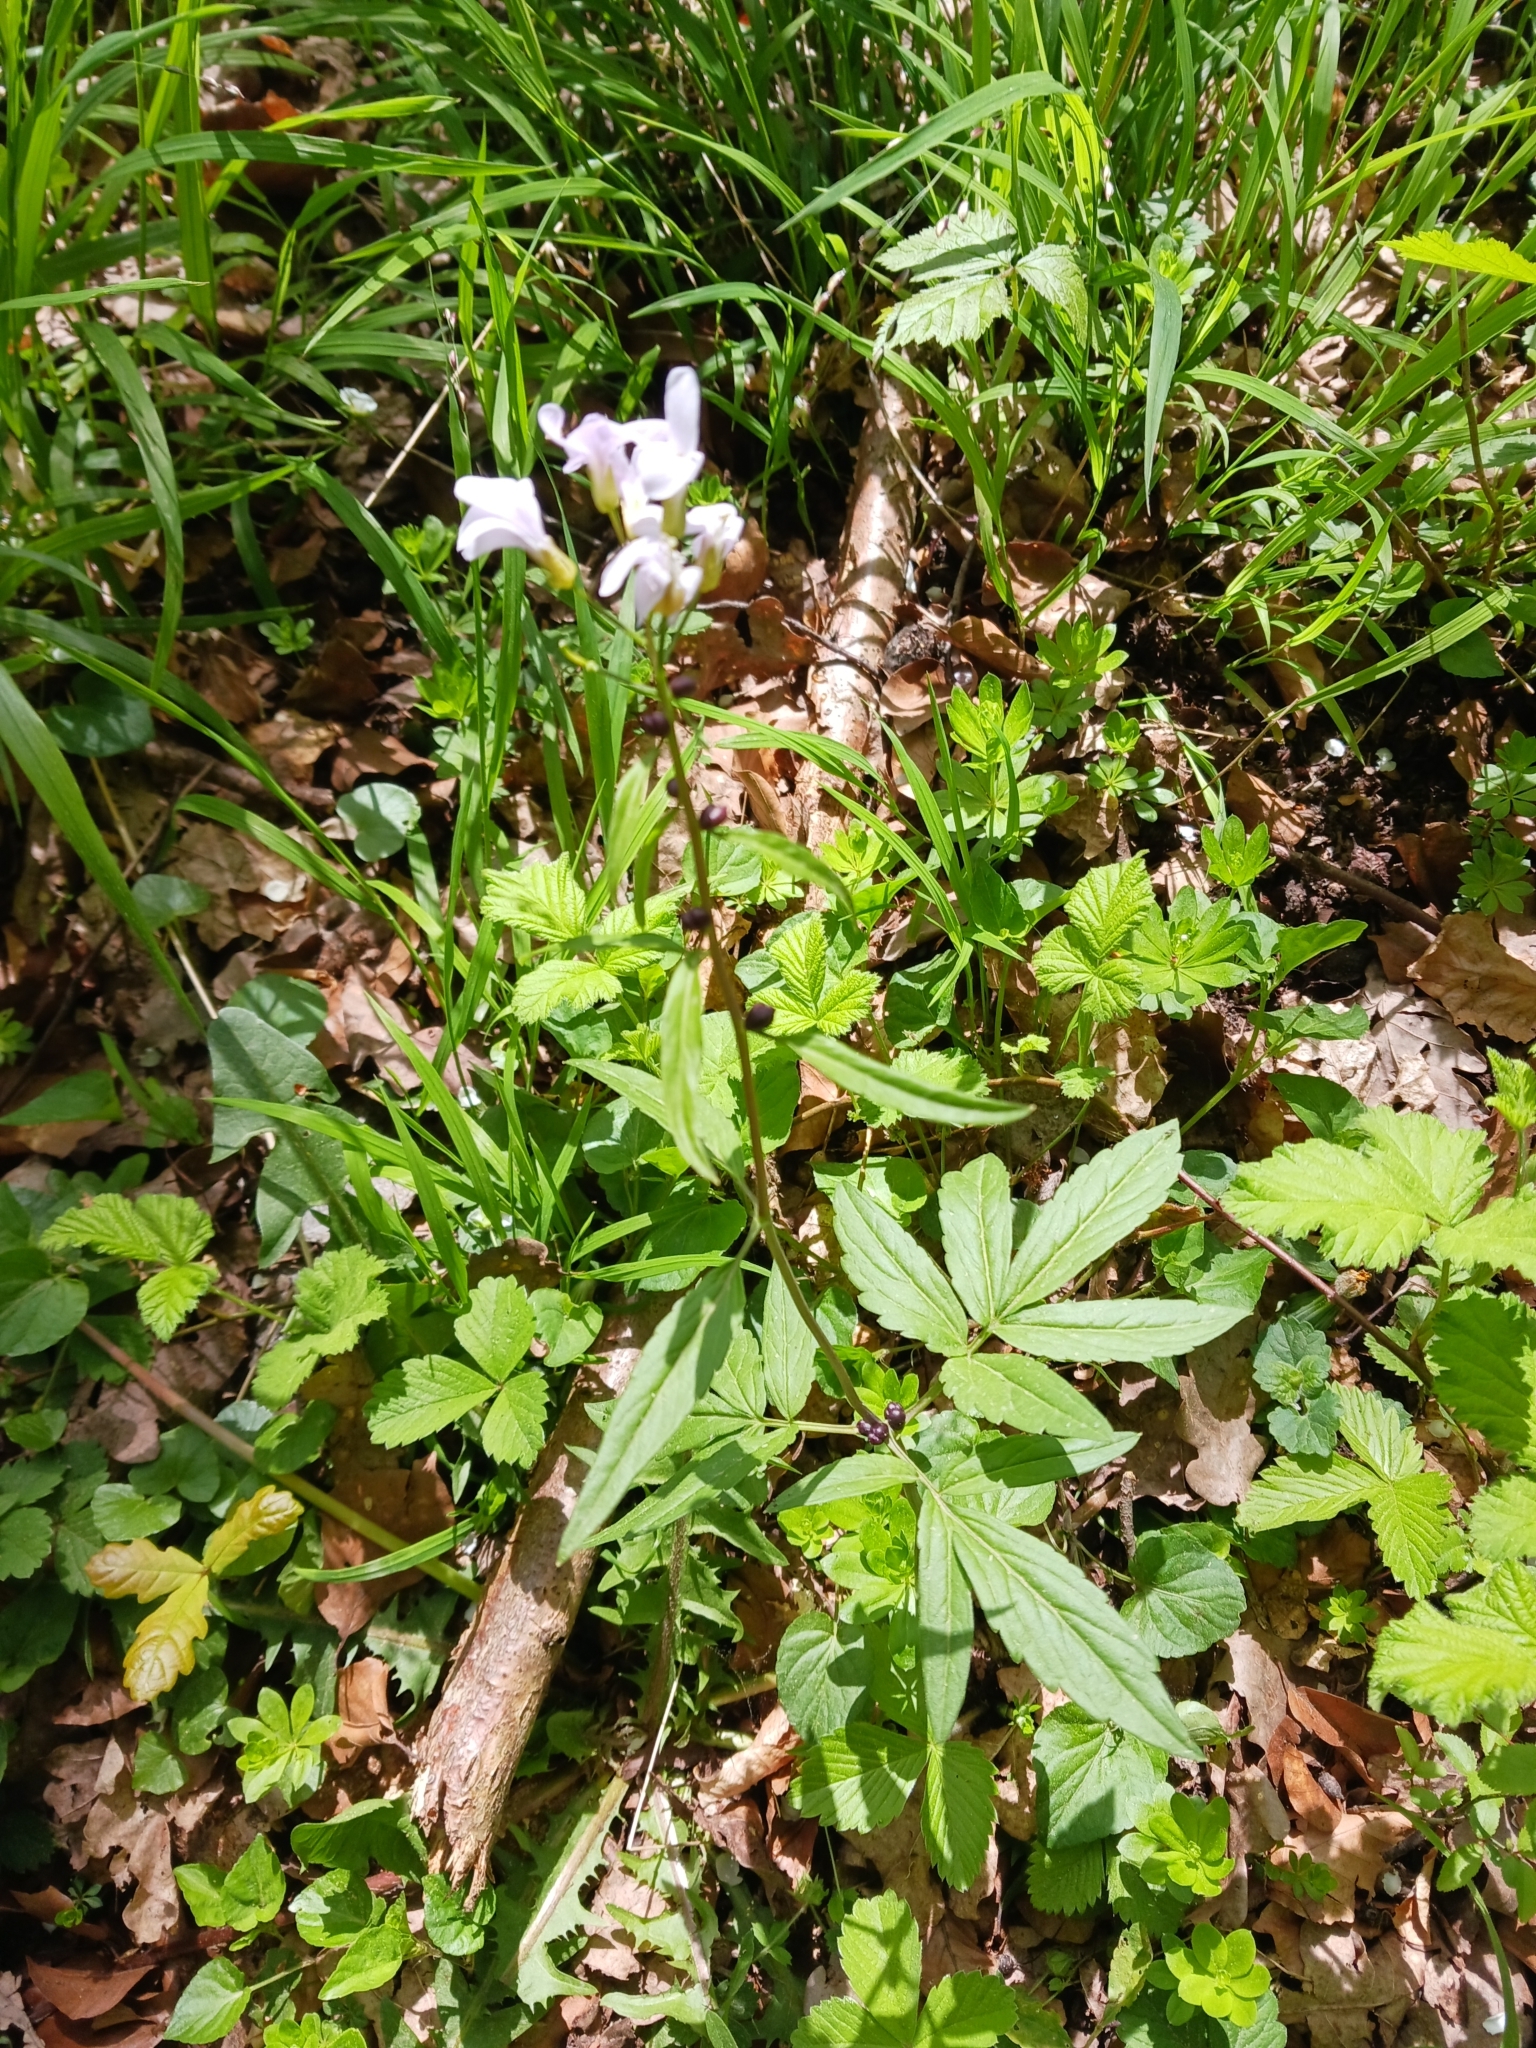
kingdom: Plantae
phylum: Tracheophyta
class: Magnoliopsida
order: Brassicales
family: Brassicaceae
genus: Cardamine
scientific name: Cardamine bulbifera
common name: Coralroot bittercress
